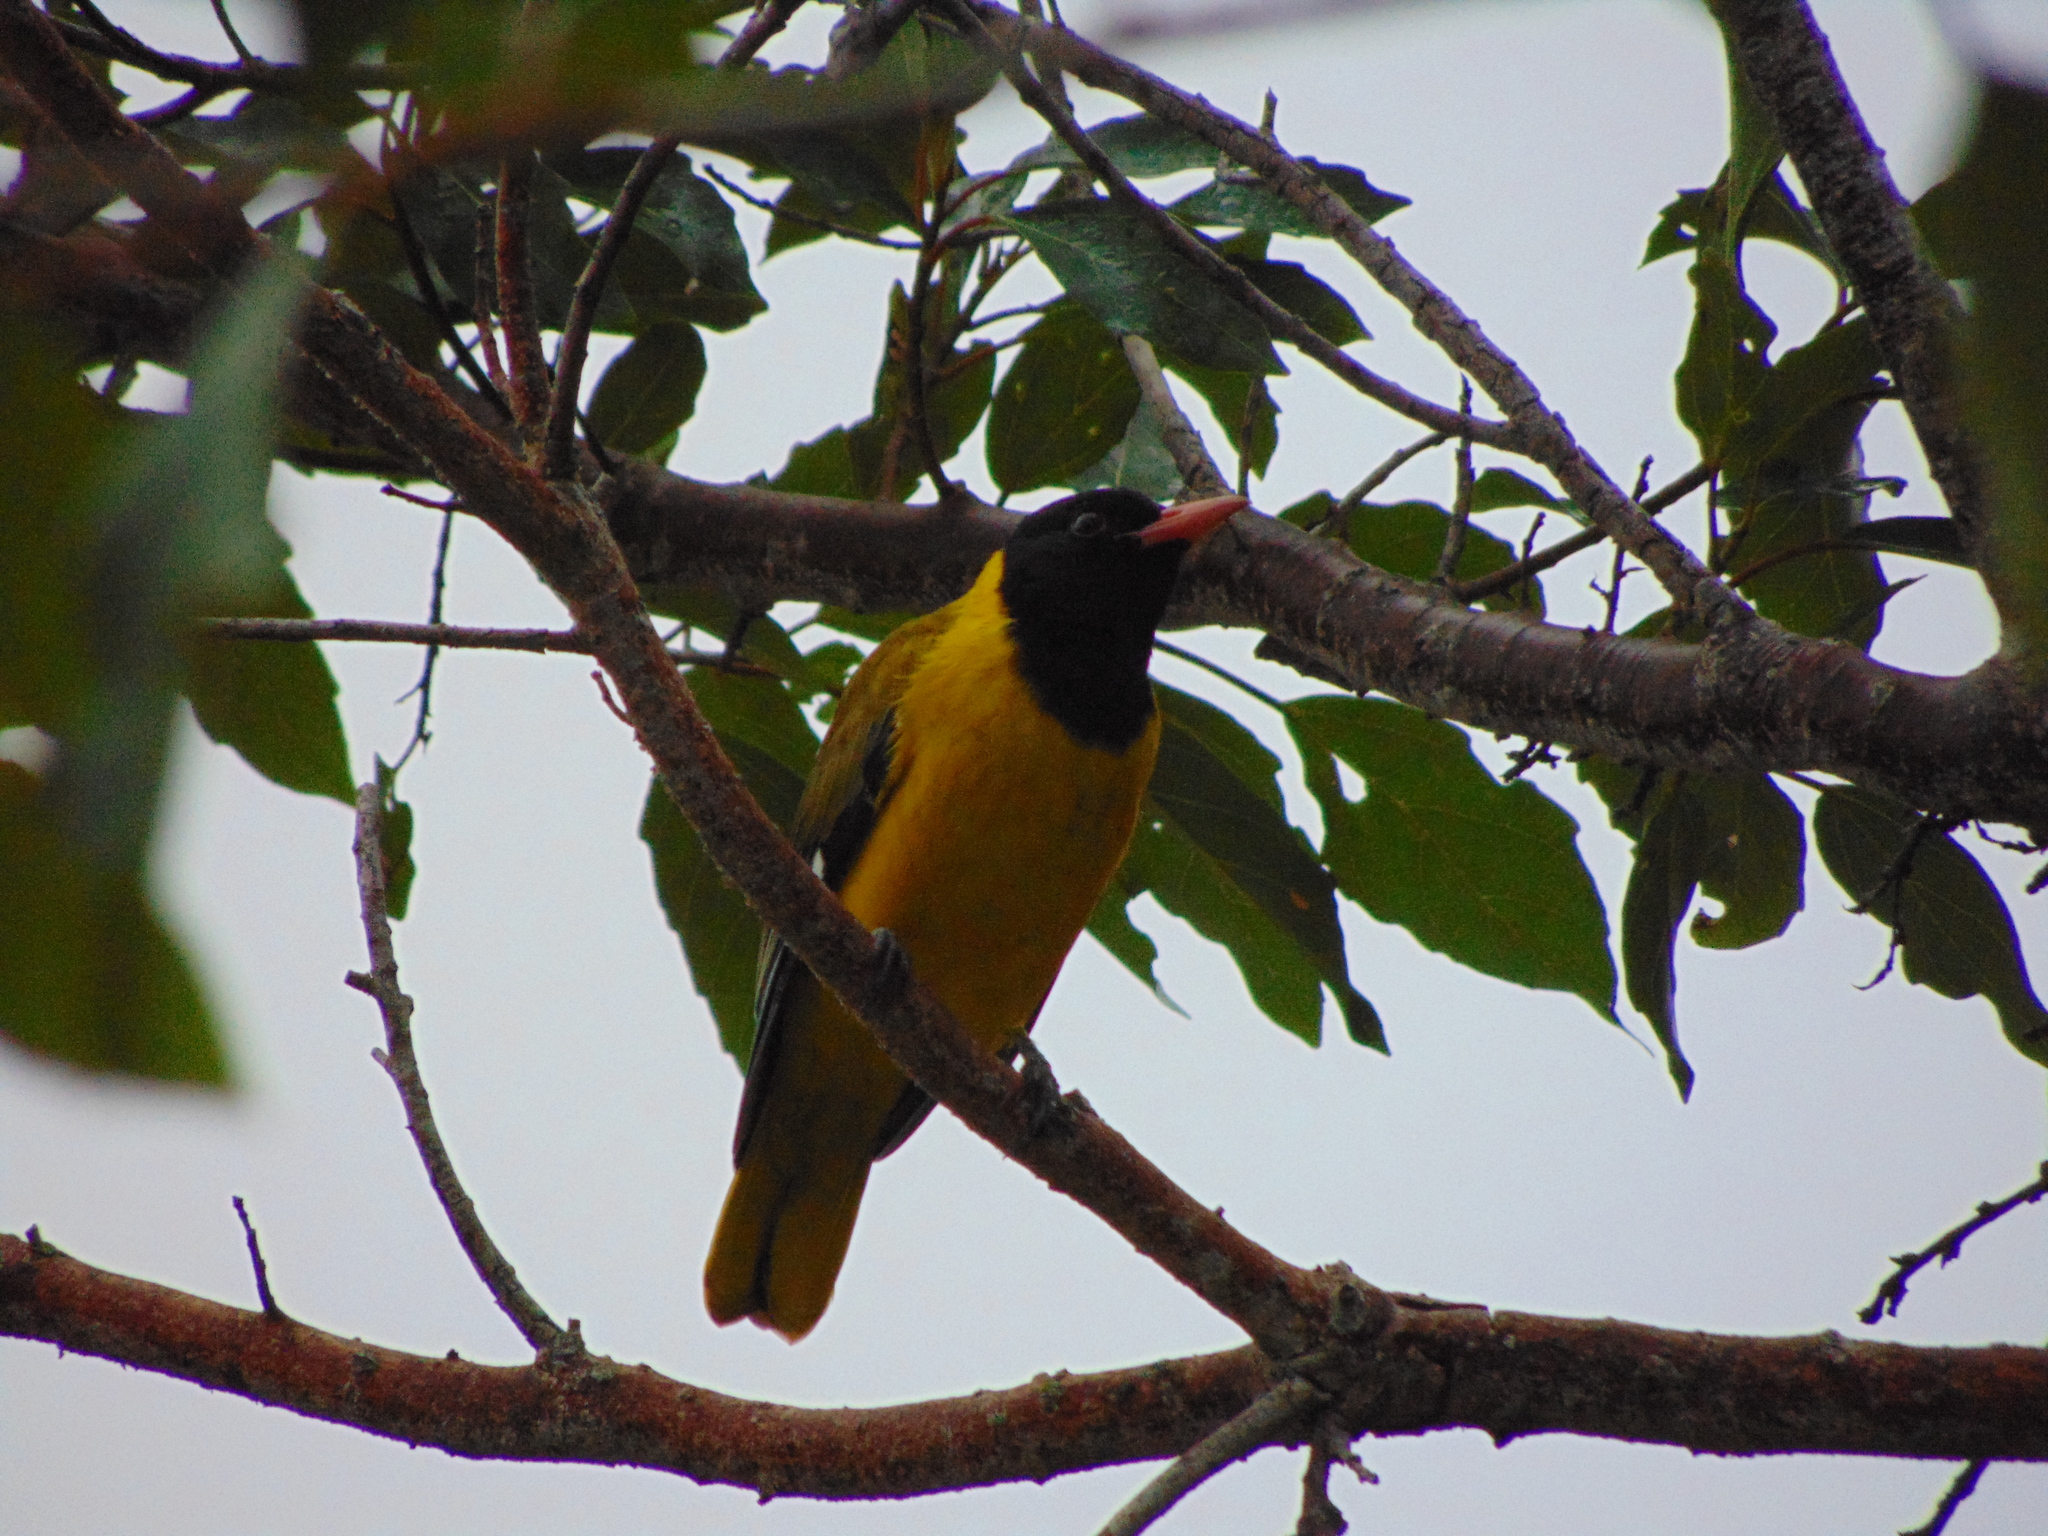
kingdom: Animalia
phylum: Chordata
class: Aves
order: Passeriformes
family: Oriolidae
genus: Oriolus
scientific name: Oriolus larvatus
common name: Black-headed oriole
